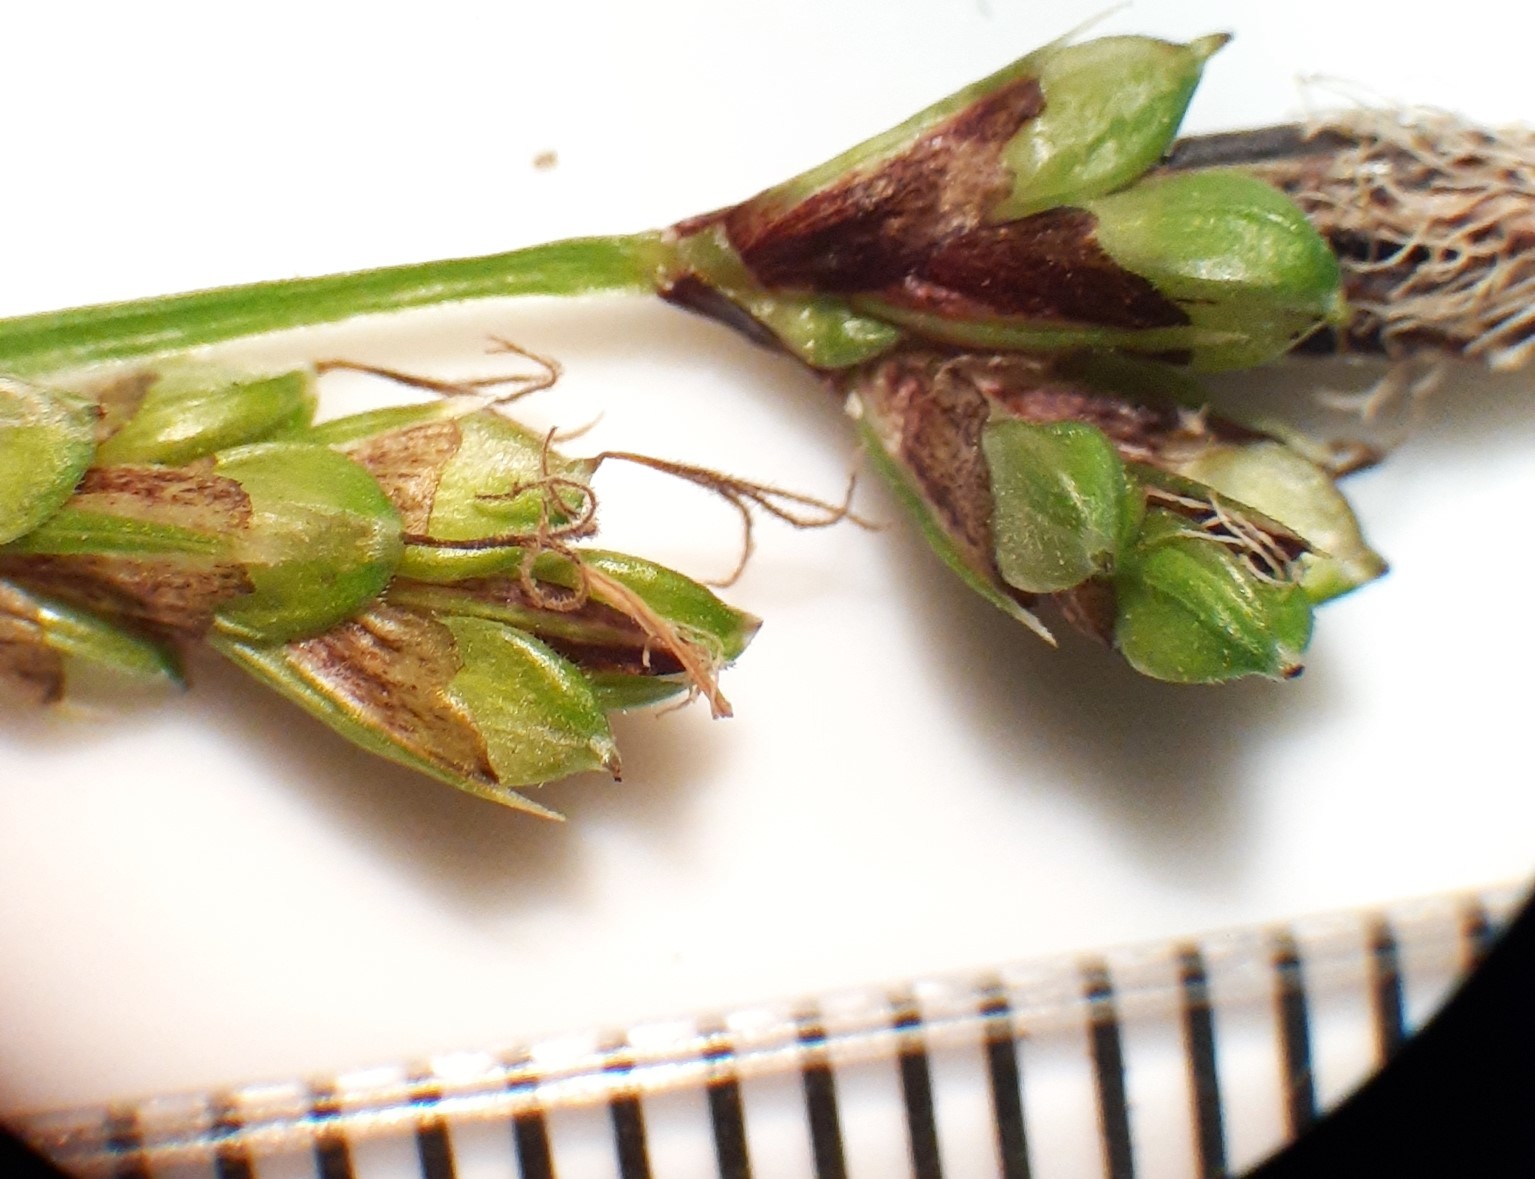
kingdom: Plantae
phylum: Tracheophyta
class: Liliopsida
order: Poales
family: Cyperaceae
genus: Carex
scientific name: Carex pedunculata
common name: Pedunculate sedge
